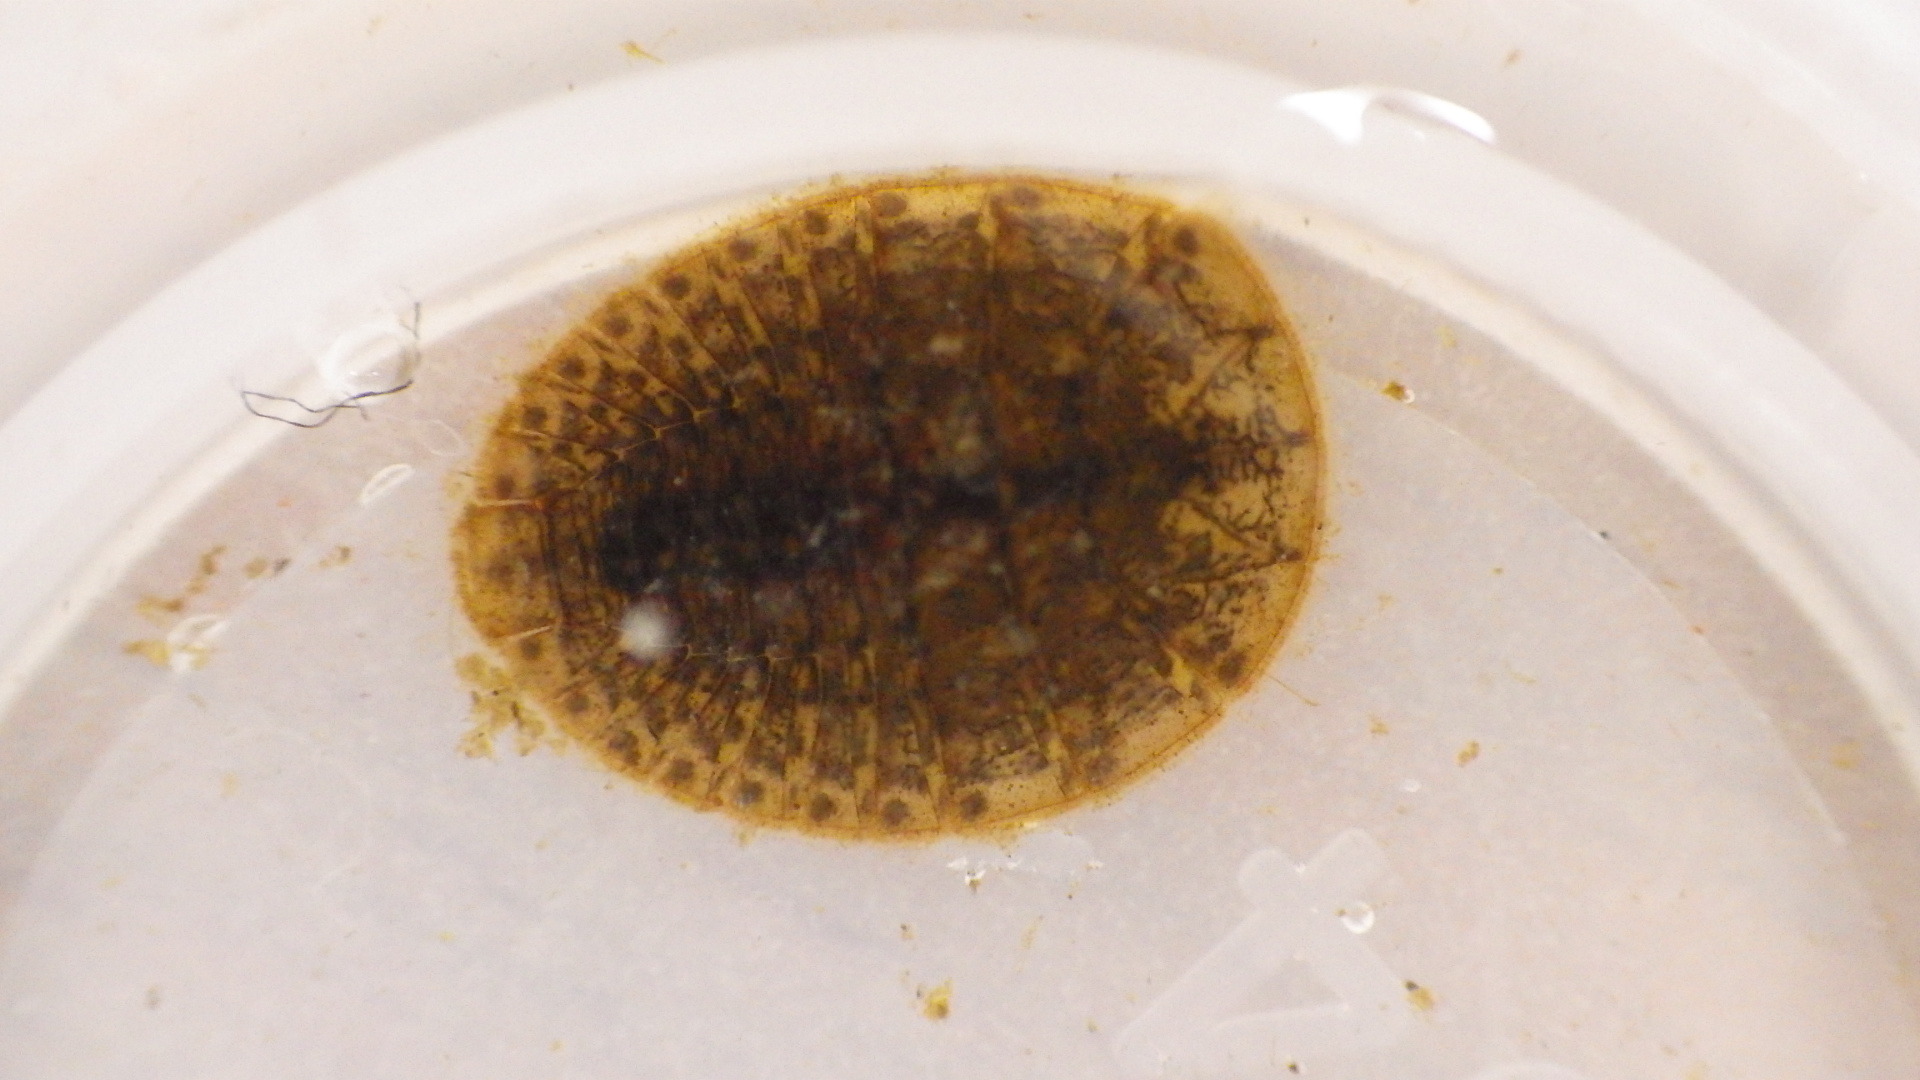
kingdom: Animalia
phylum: Arthropoda
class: Insecta
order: Coleoptera
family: Psephenidae
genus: Psephenus
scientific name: Psephenus herricki
